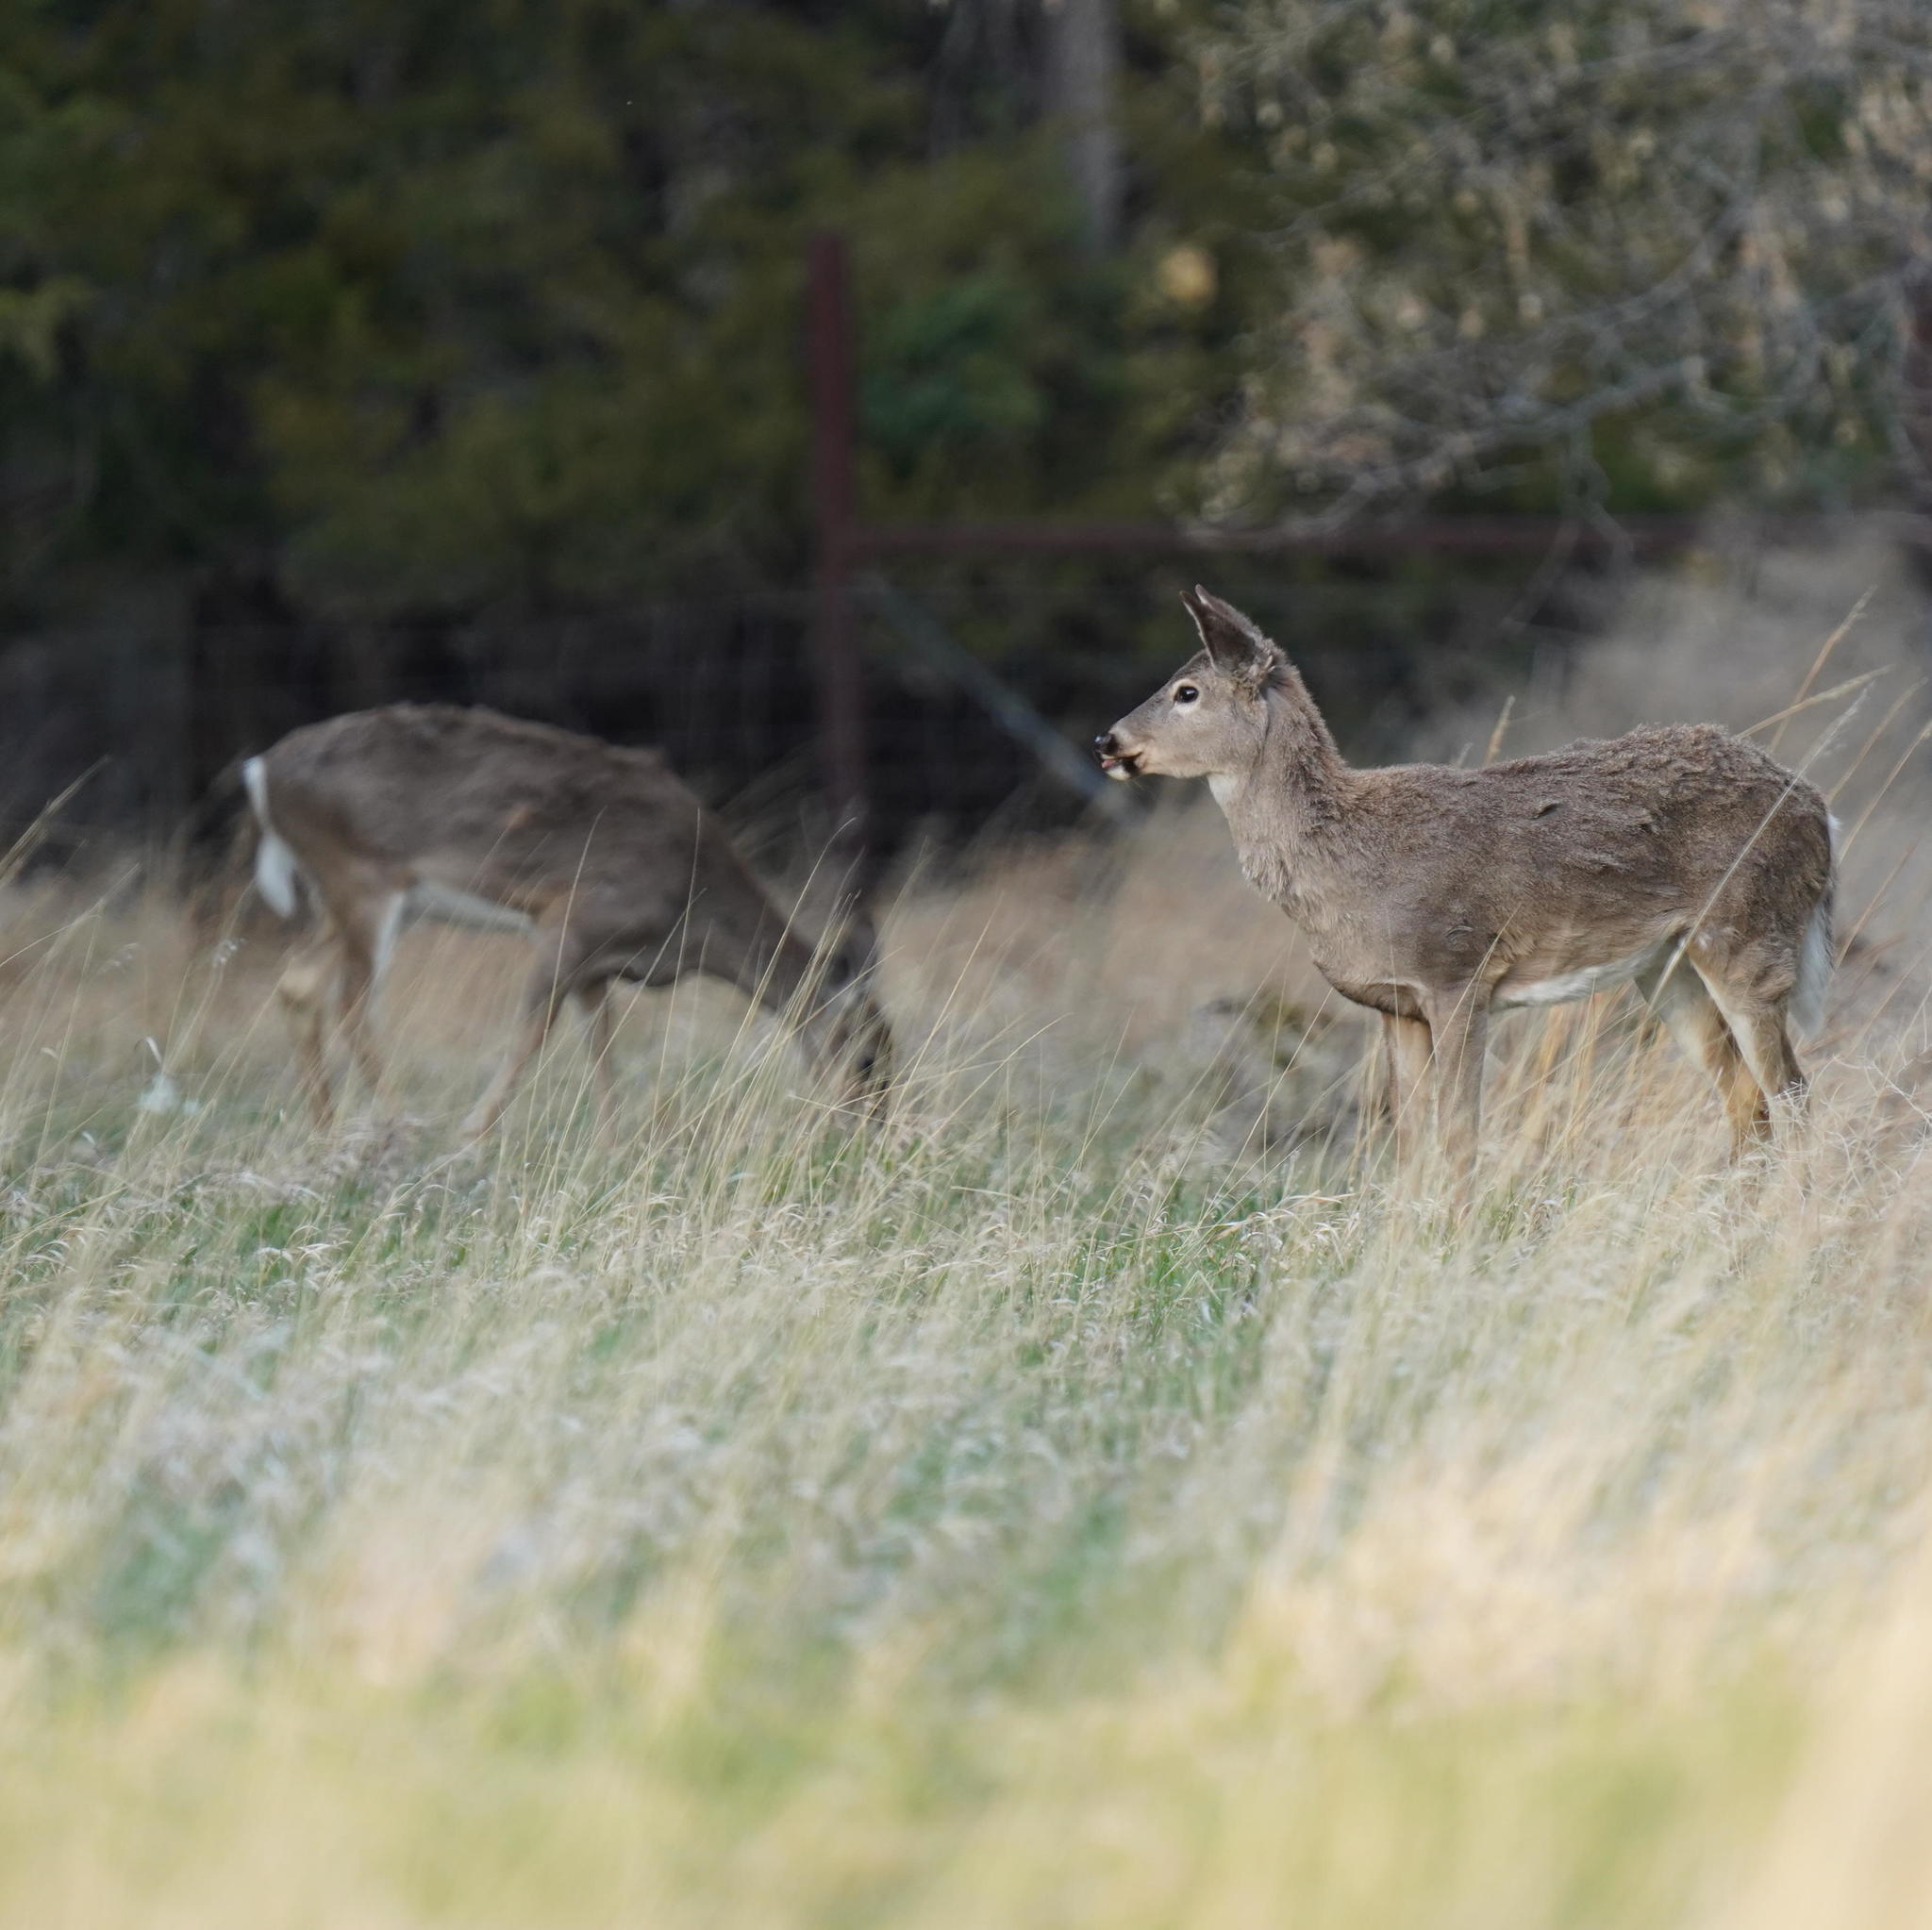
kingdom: Animalia
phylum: Chordata
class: Mammalia
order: Artiodactyla
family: Cervidae
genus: Odocoileus
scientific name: Odocoileus virginianus
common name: White-tailed deer
